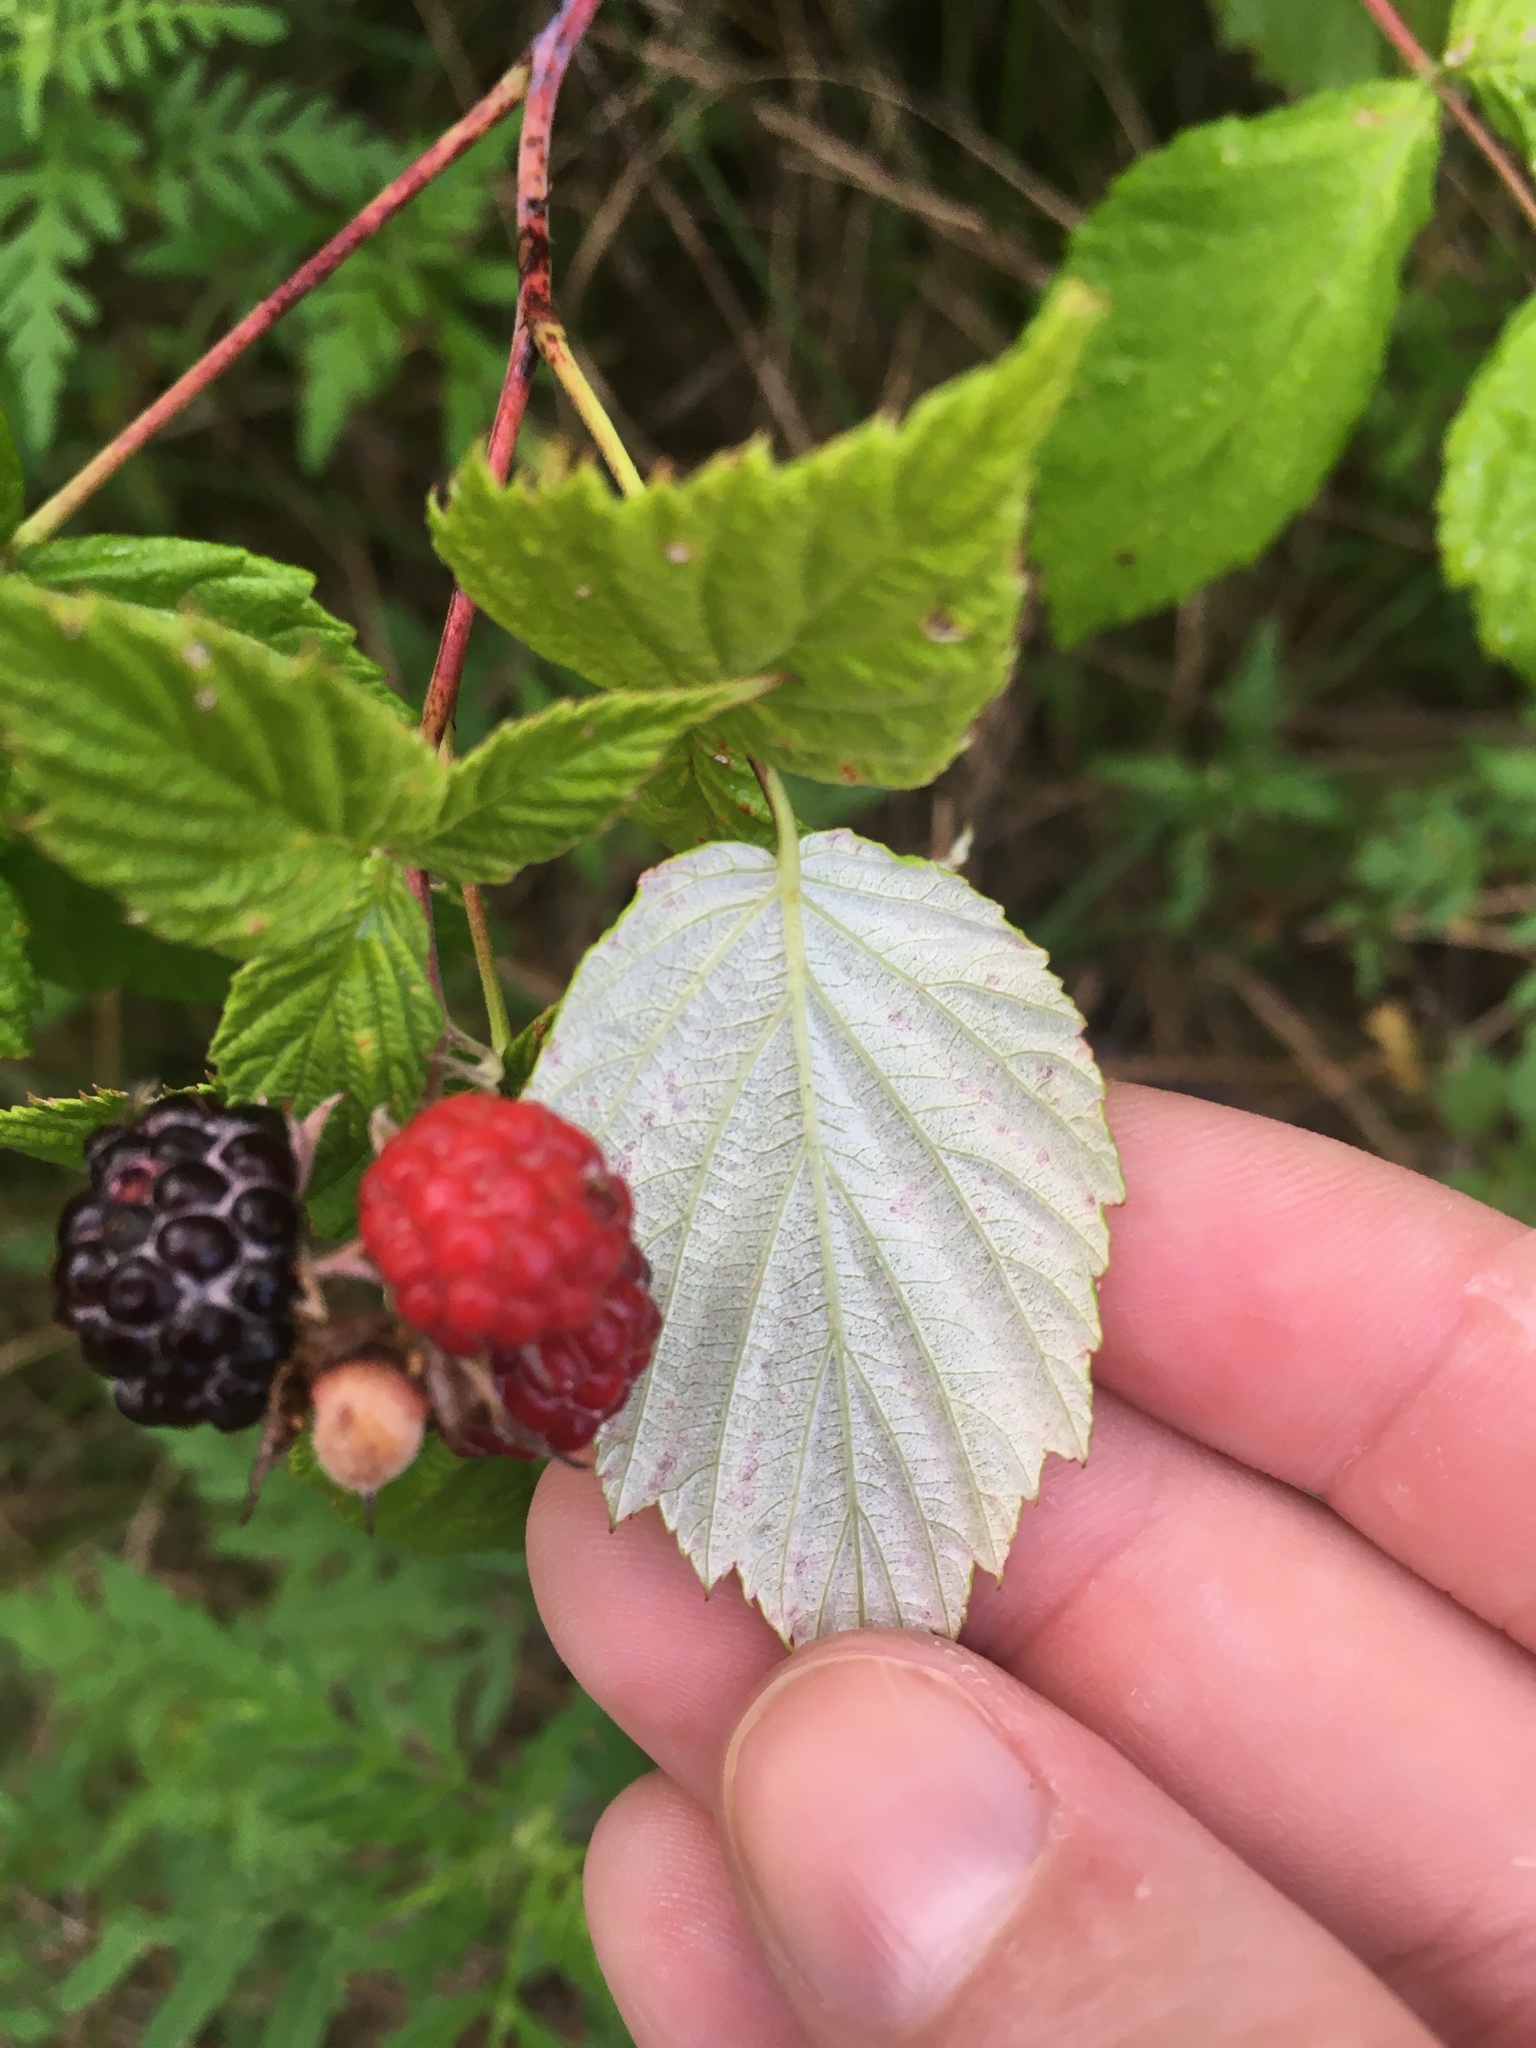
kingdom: Plantae
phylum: Tracheophyta
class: Magnoliopsida
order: Rosales
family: Rosaceae
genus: Rubus
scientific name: Rubus occidentalis
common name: Black raspberry
